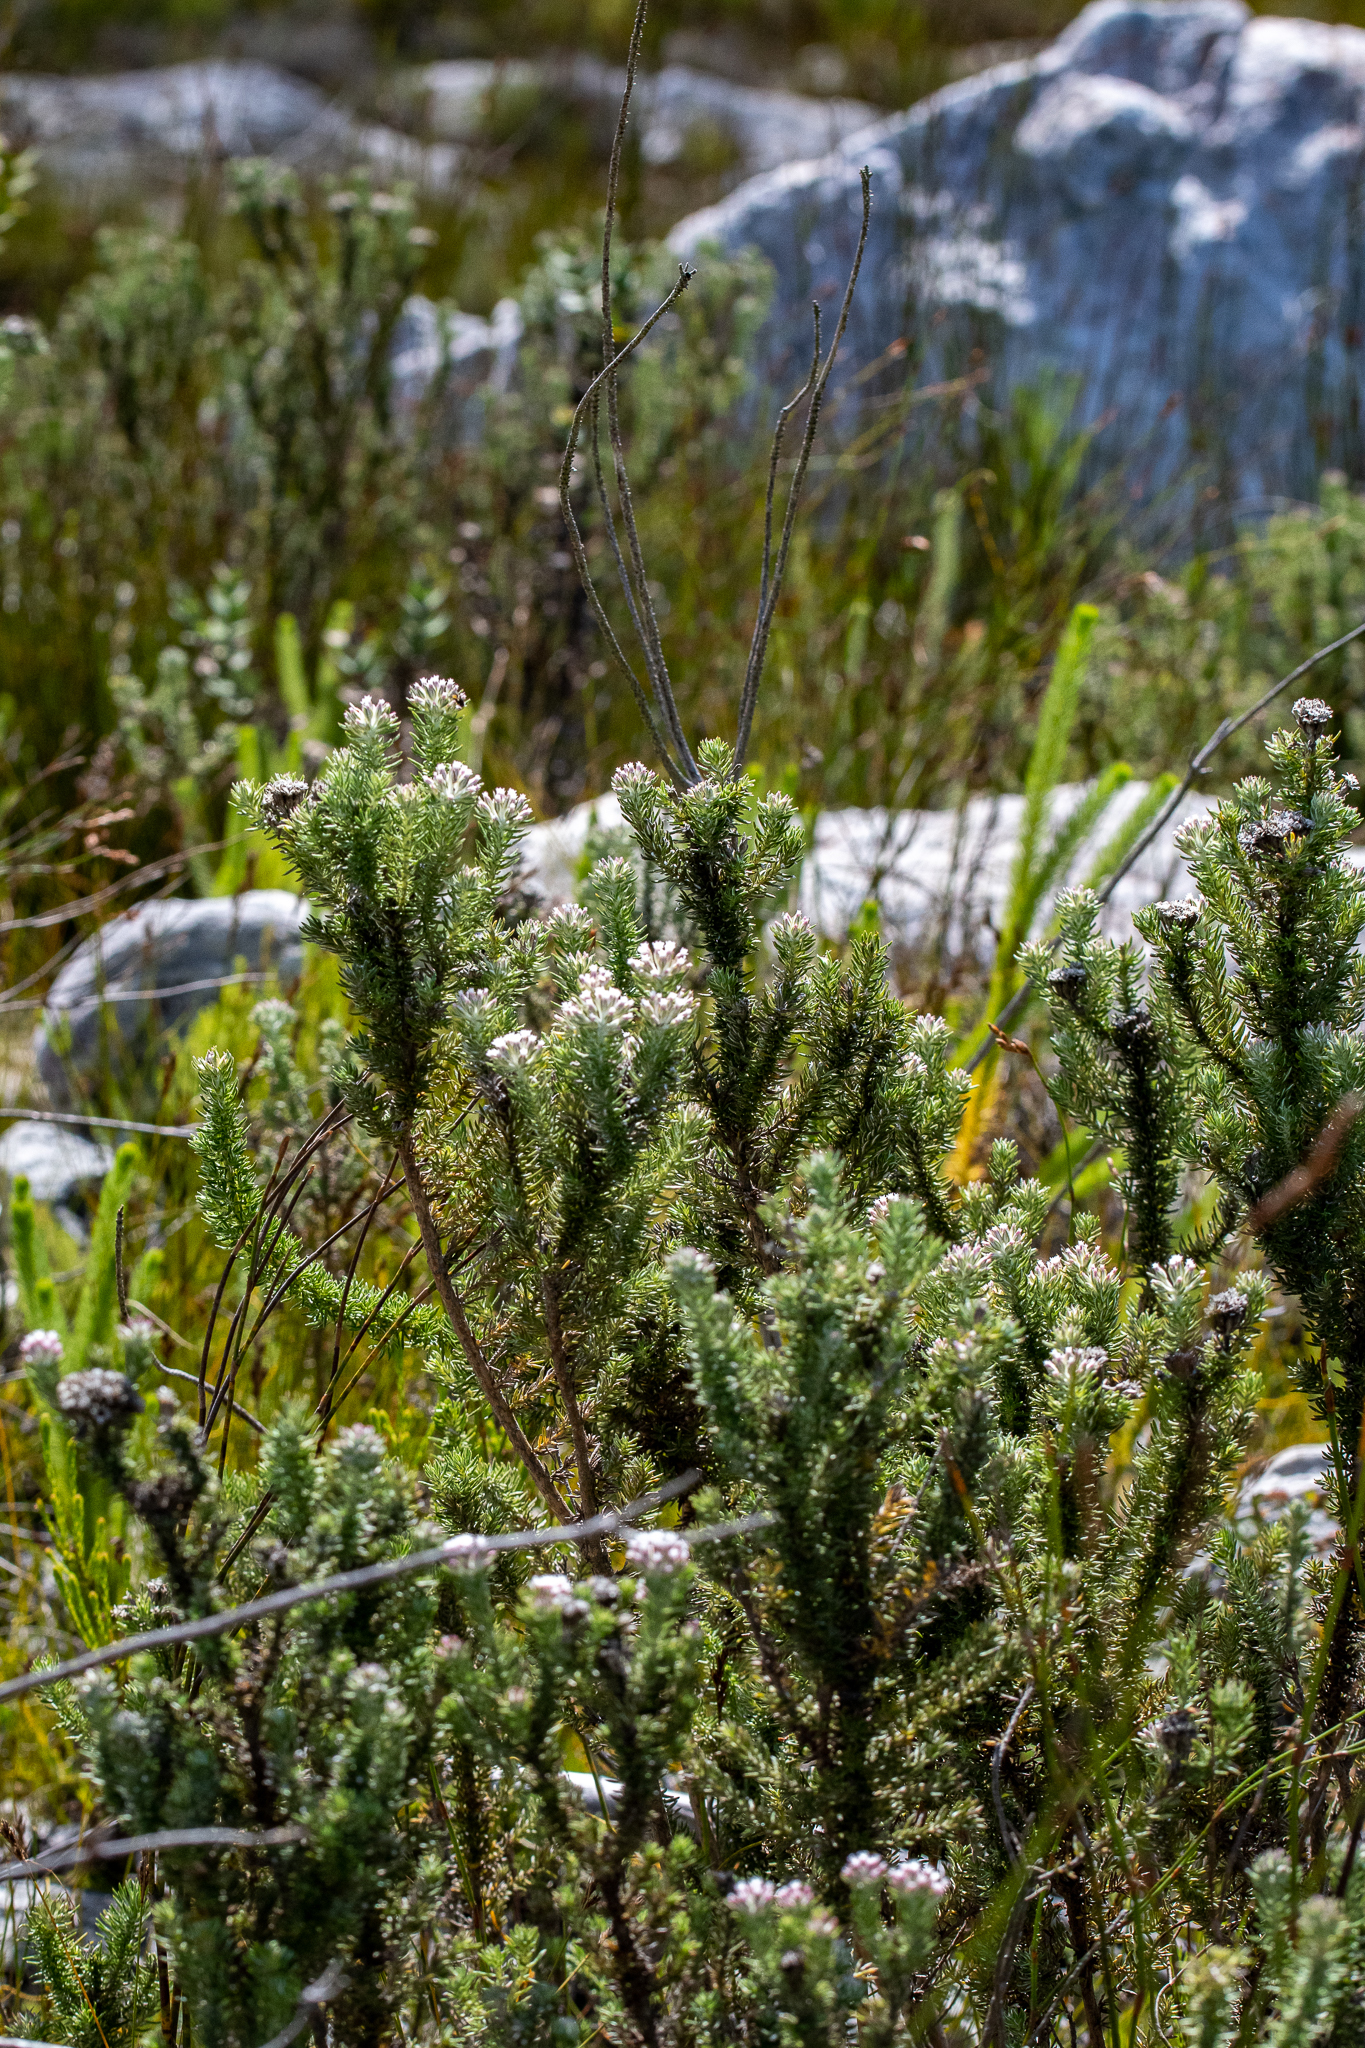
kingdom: Plantae
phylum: Tracheophyta
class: Magnoliopsida
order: Asterales
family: Asteraceae
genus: Metalasia
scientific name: Metalasia lichtensteinii
